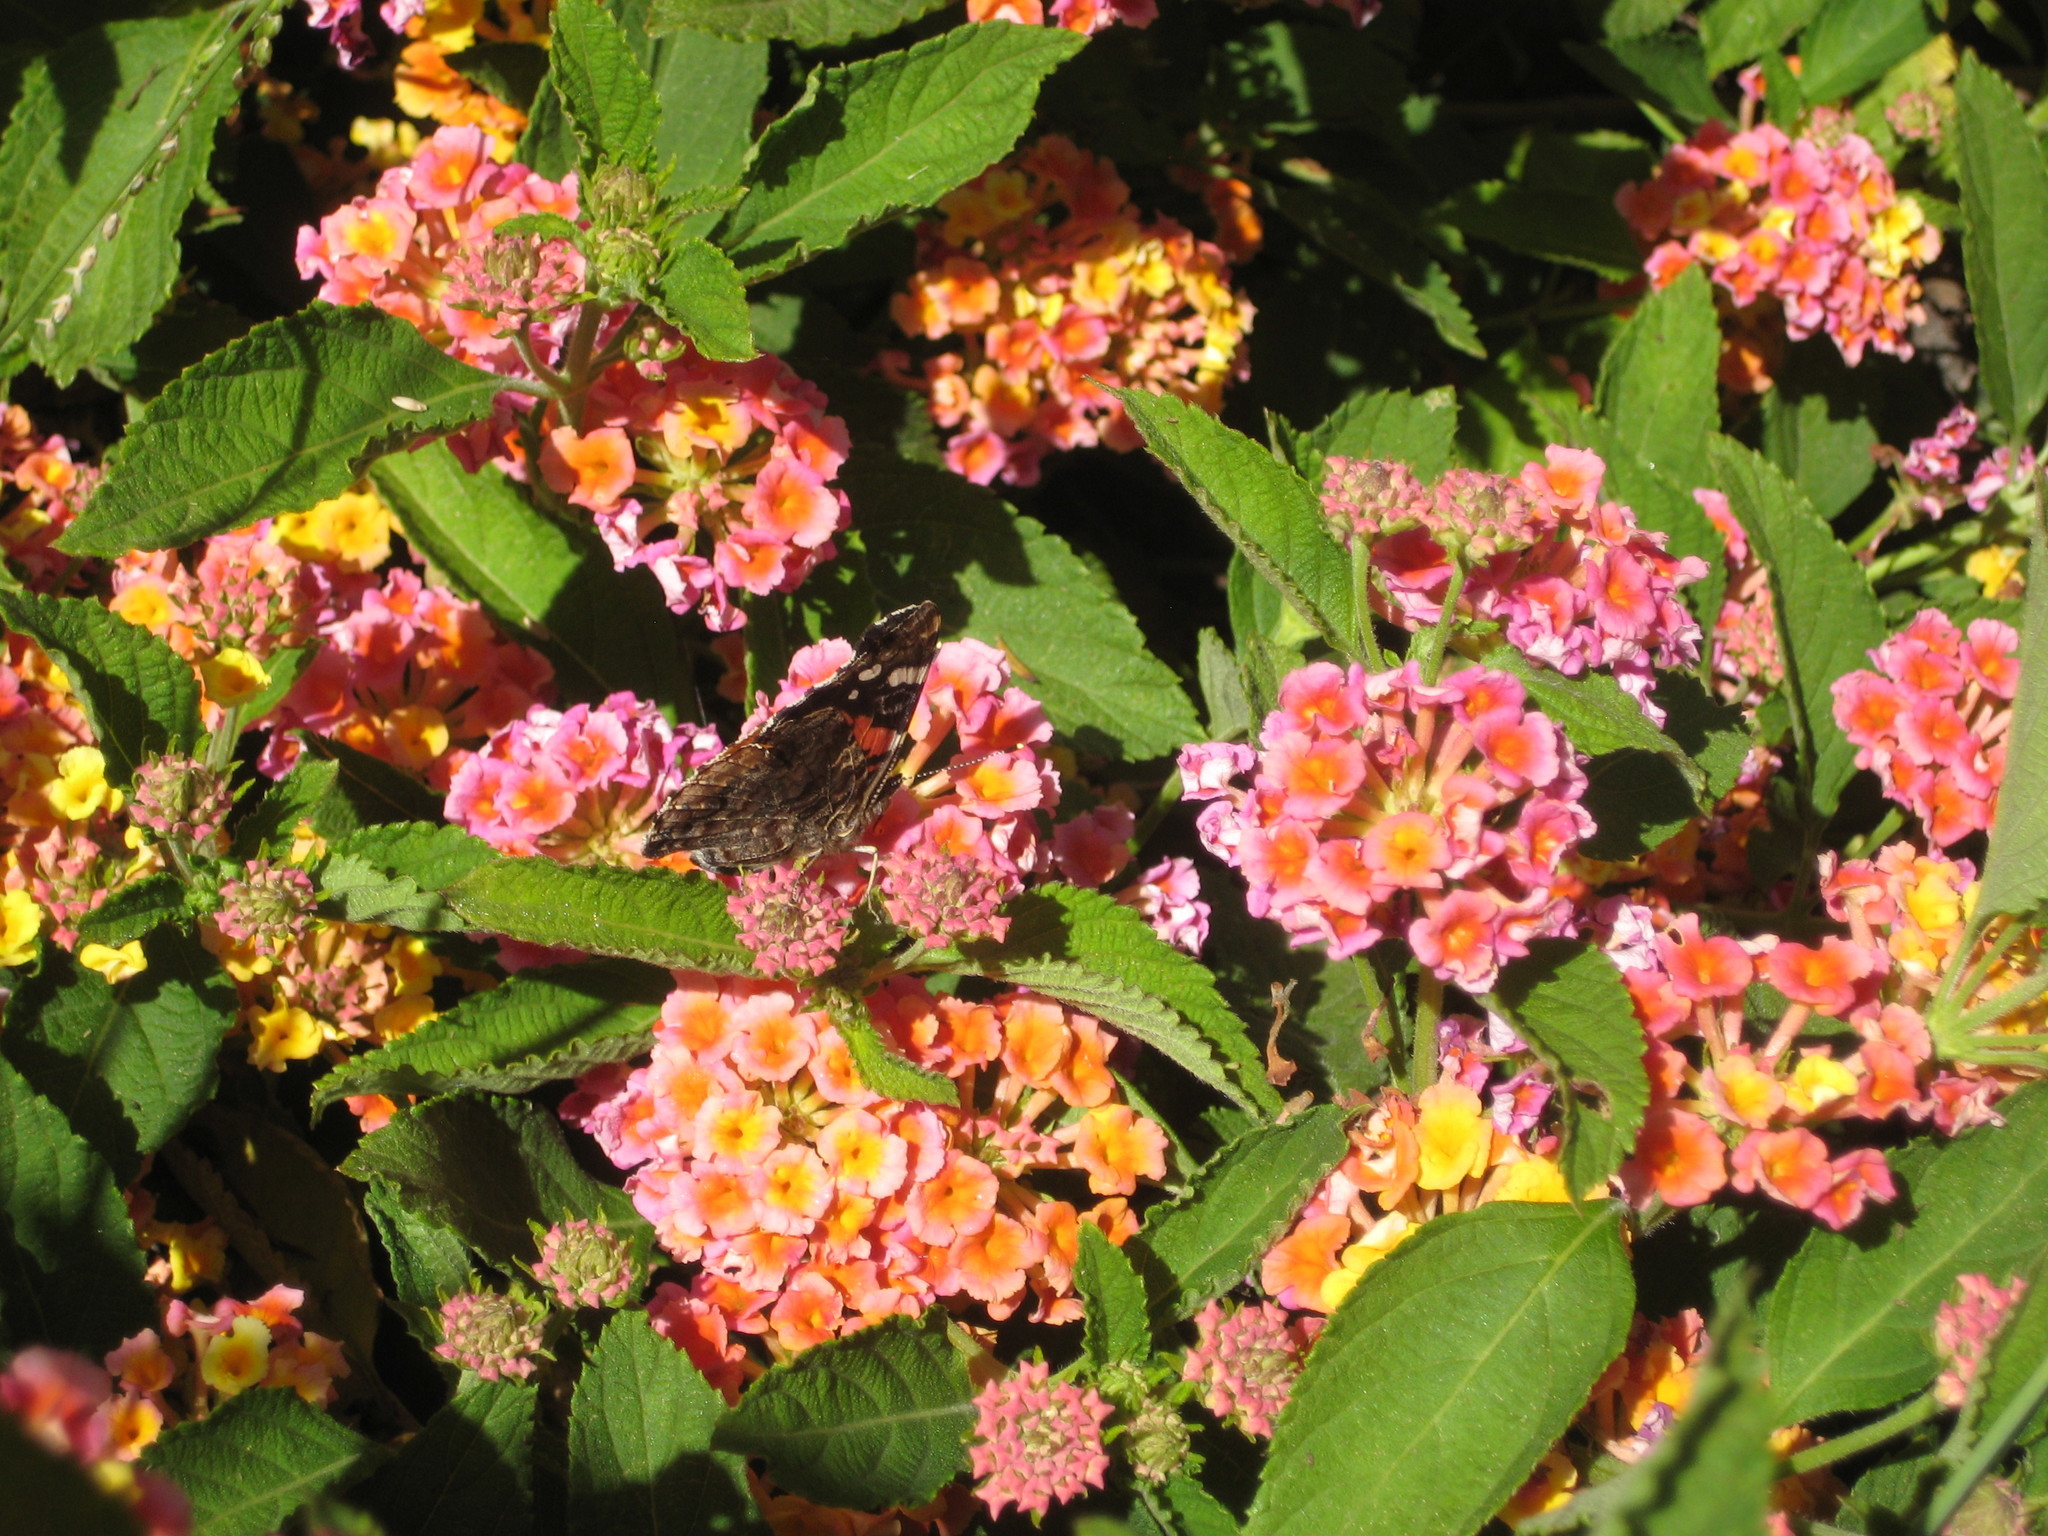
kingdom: Animalia
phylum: Arthropoda
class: Insecta
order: Lepidoptera
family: Nymphalidae
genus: Vanessa
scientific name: Vanessa atalanta
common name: Red admiral
